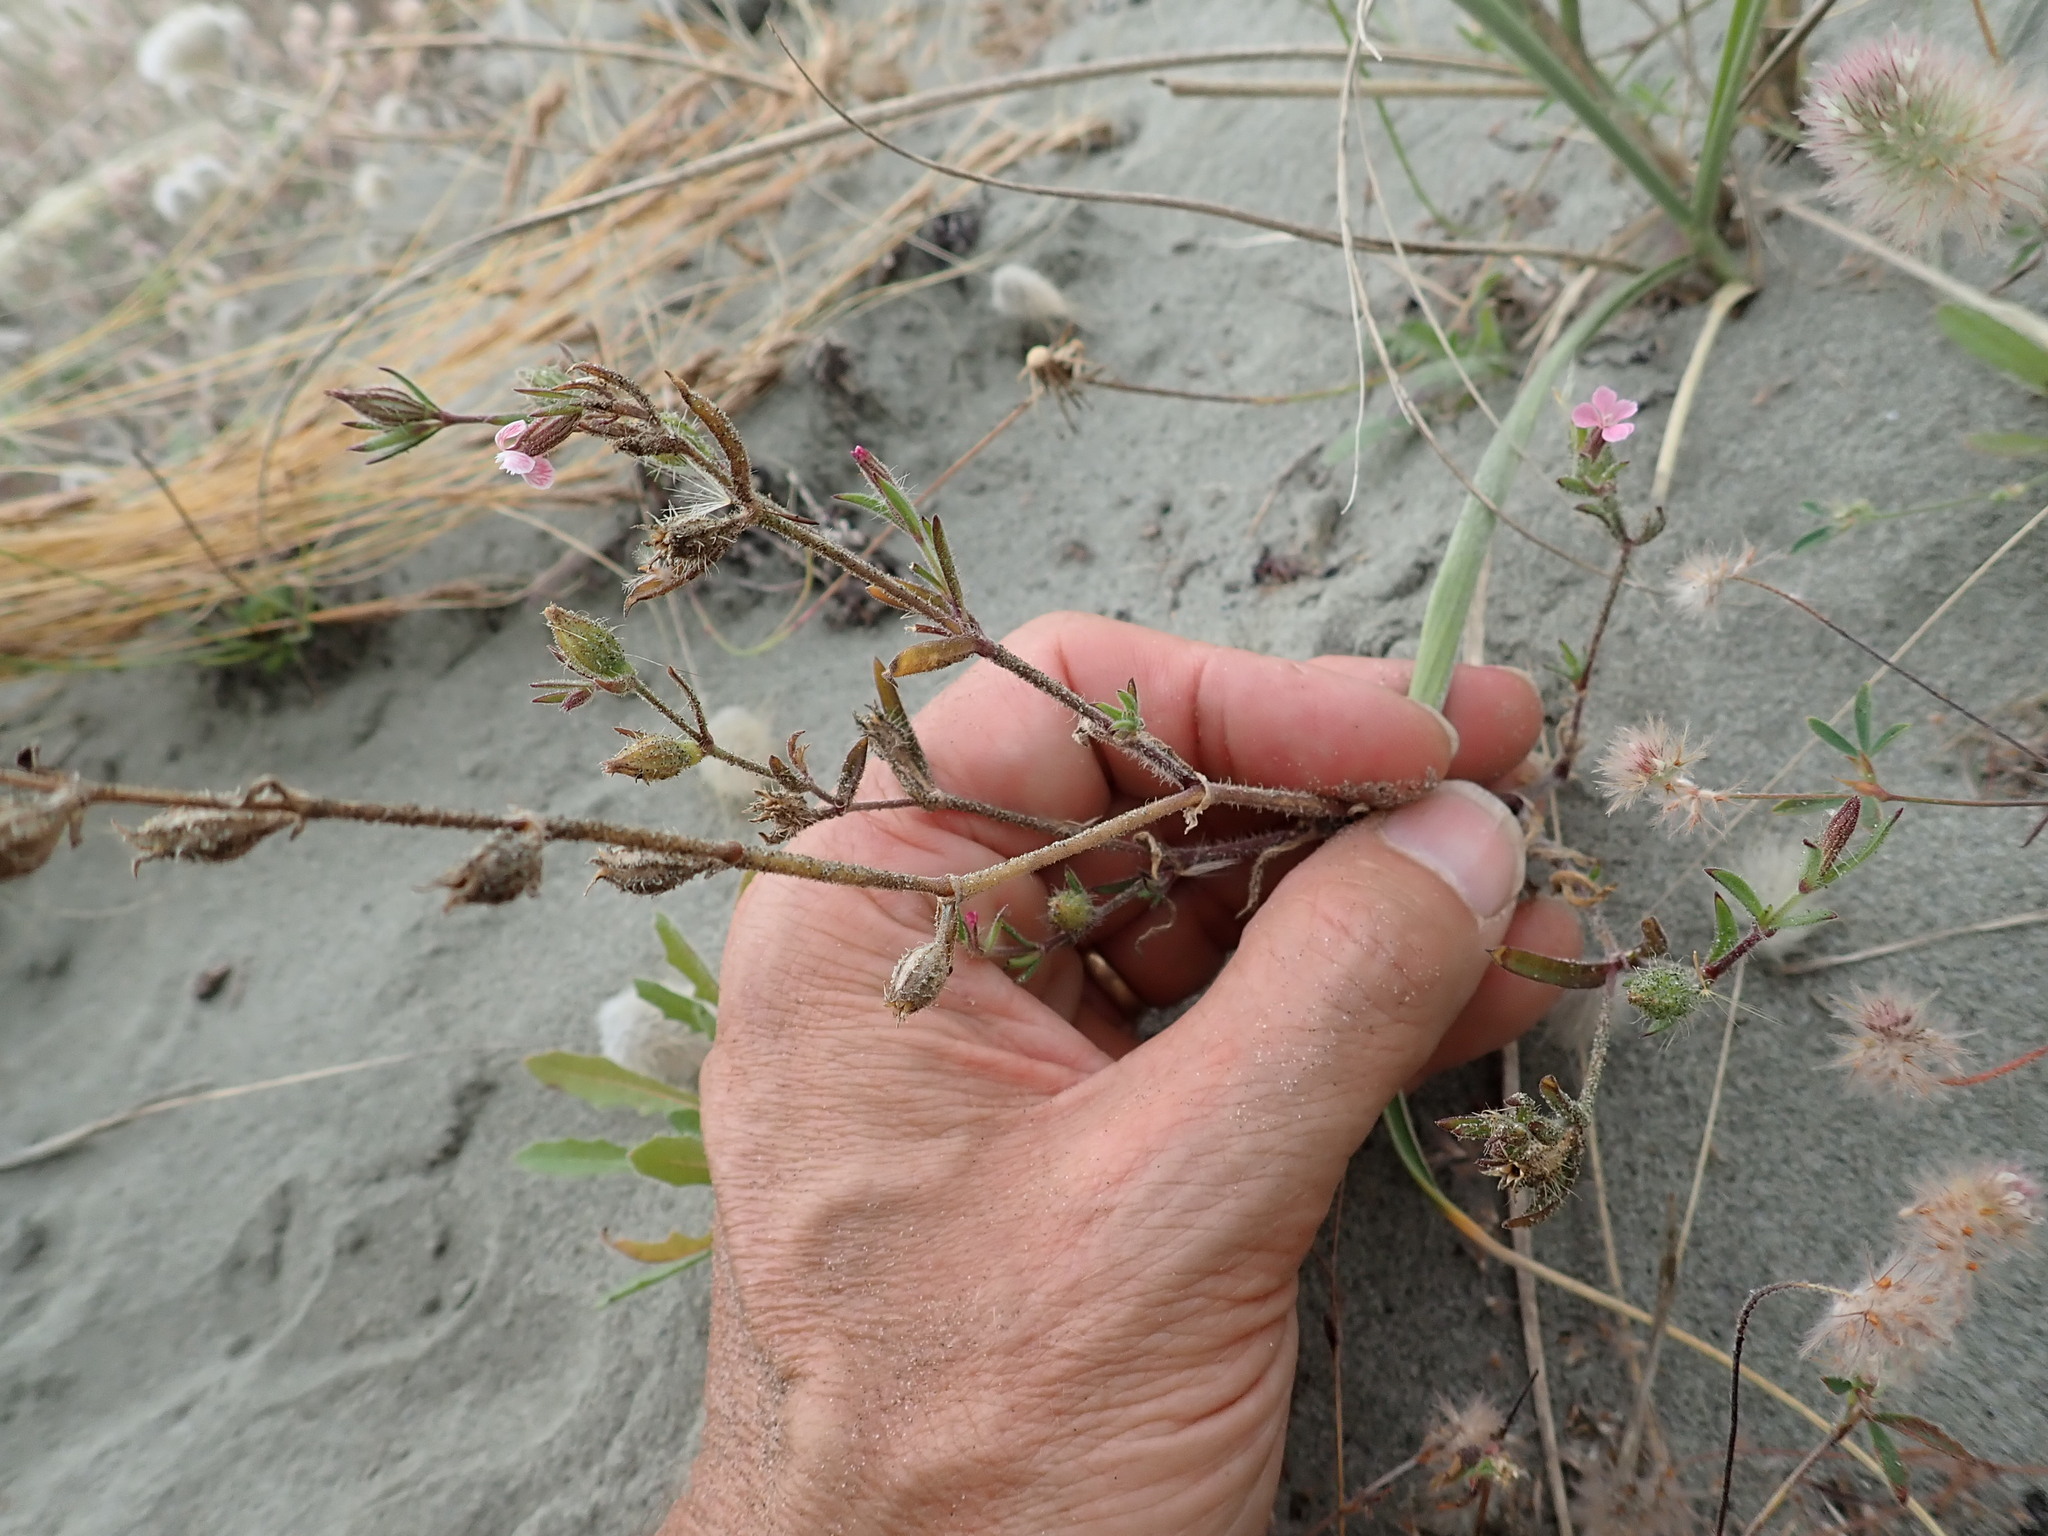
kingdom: Plantae
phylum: Tracheophyta
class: Magnoliopsida
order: Caryophyllales
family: Caryophyllaceae
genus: Silene
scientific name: Silene gallica
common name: Small-flowered catchfly
